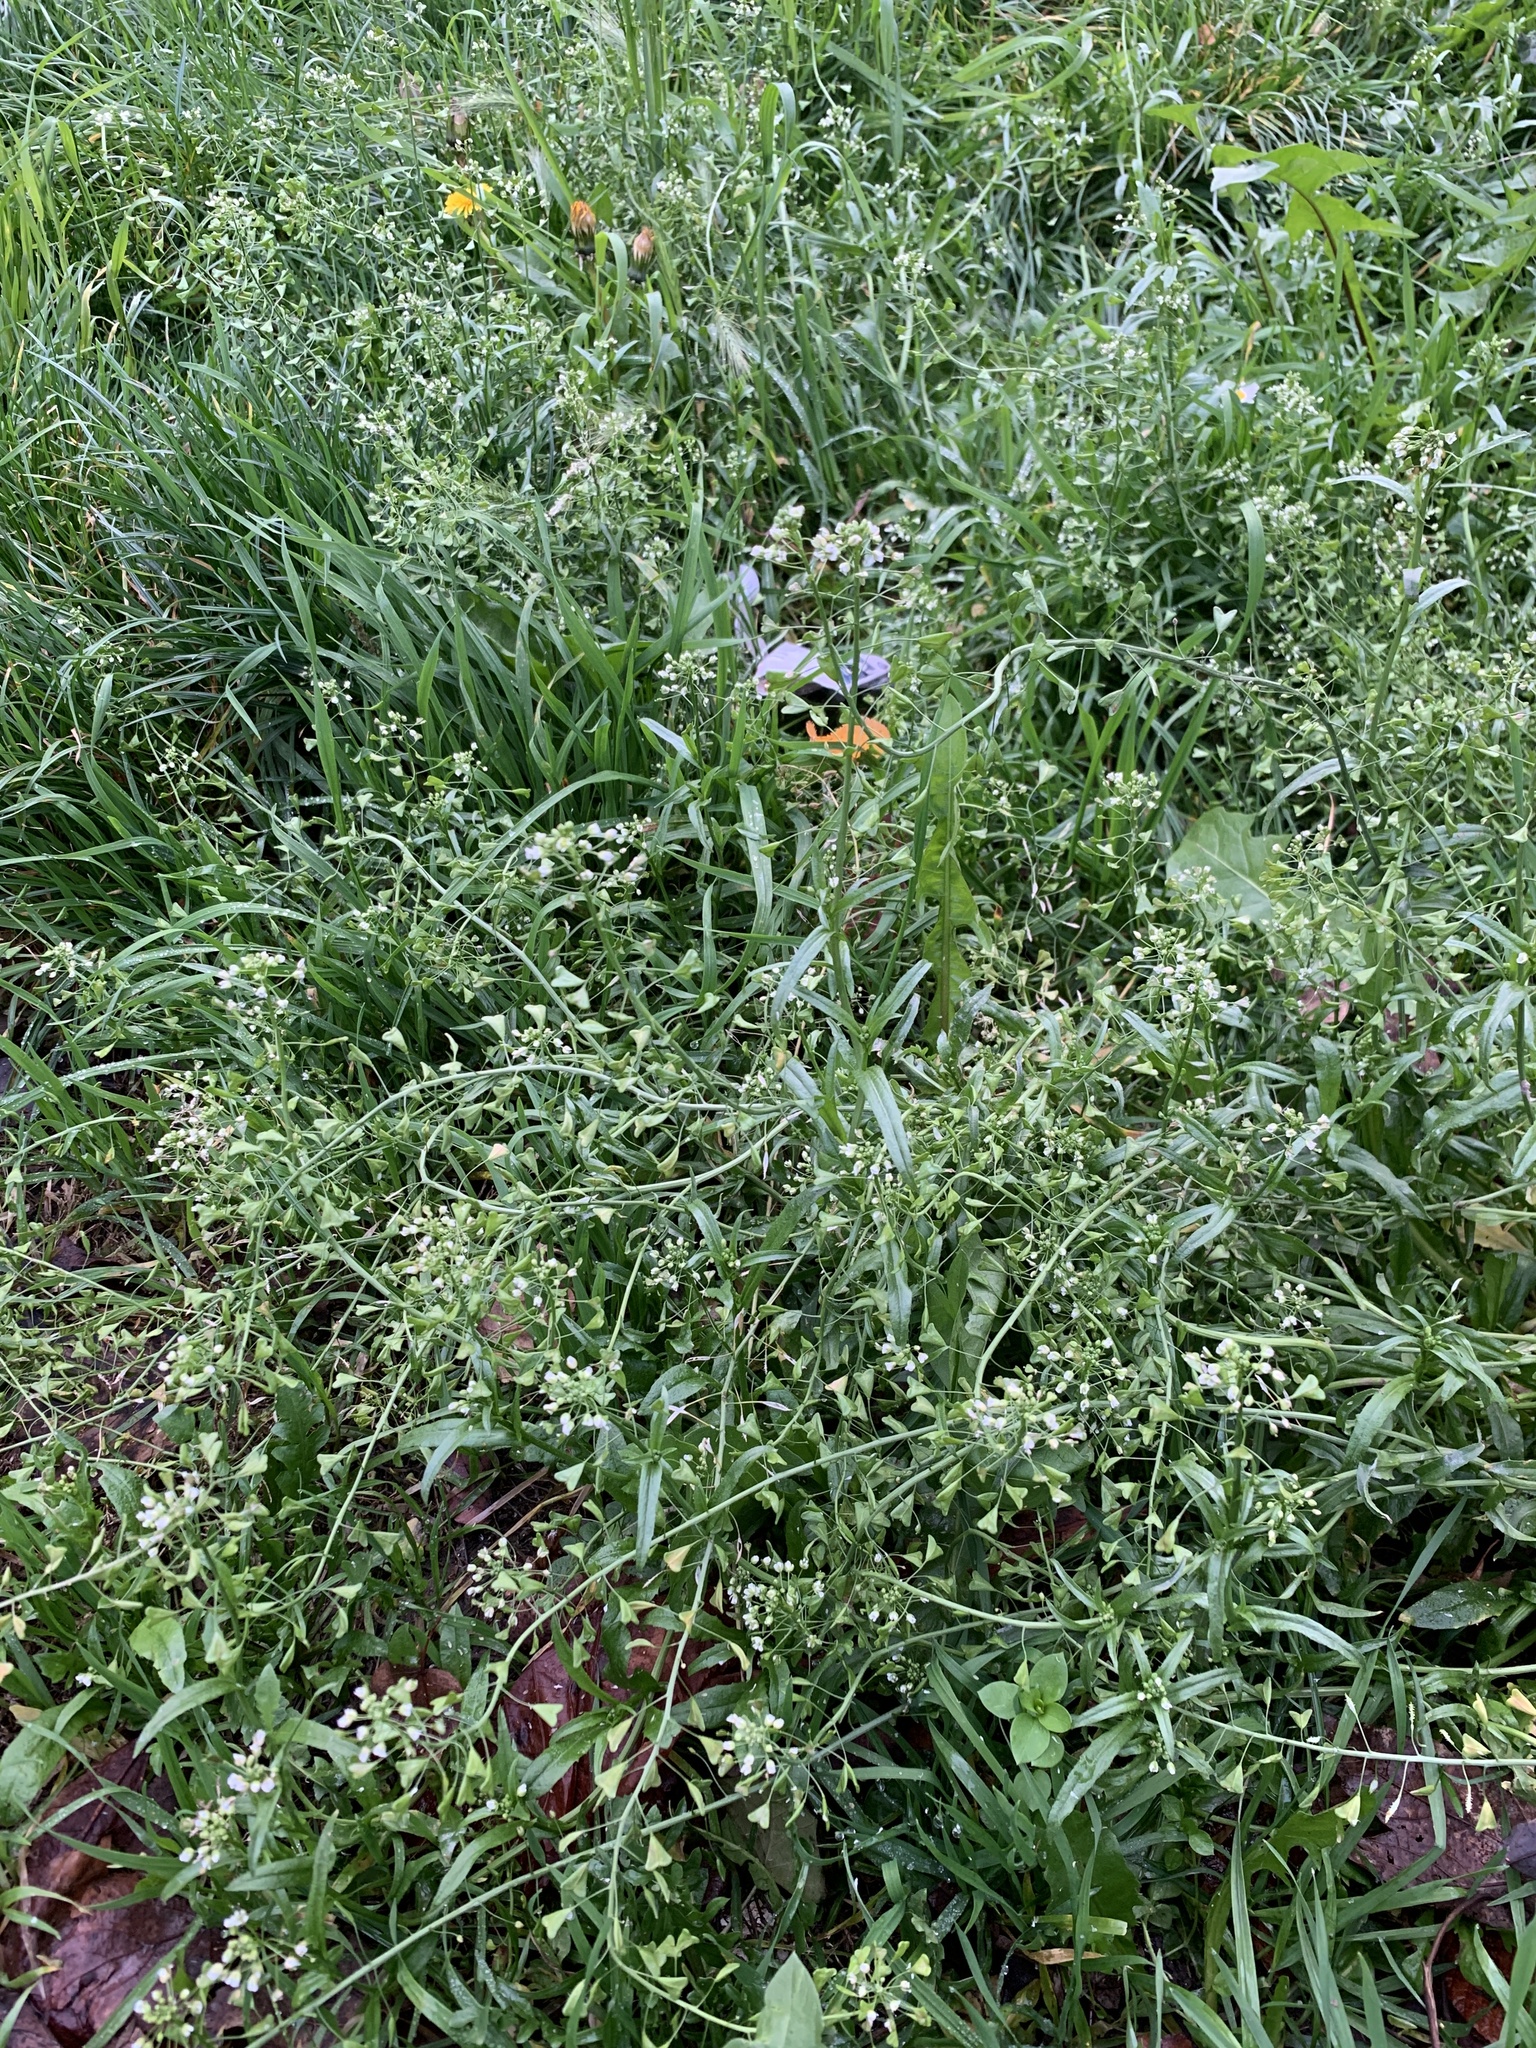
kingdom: Plantae
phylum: Tracheophyta
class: Magnoliopsida
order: Brassicales
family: Brassicaceae
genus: Capsella
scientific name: Capsella bursa-pastoris
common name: Shepherd's purse
